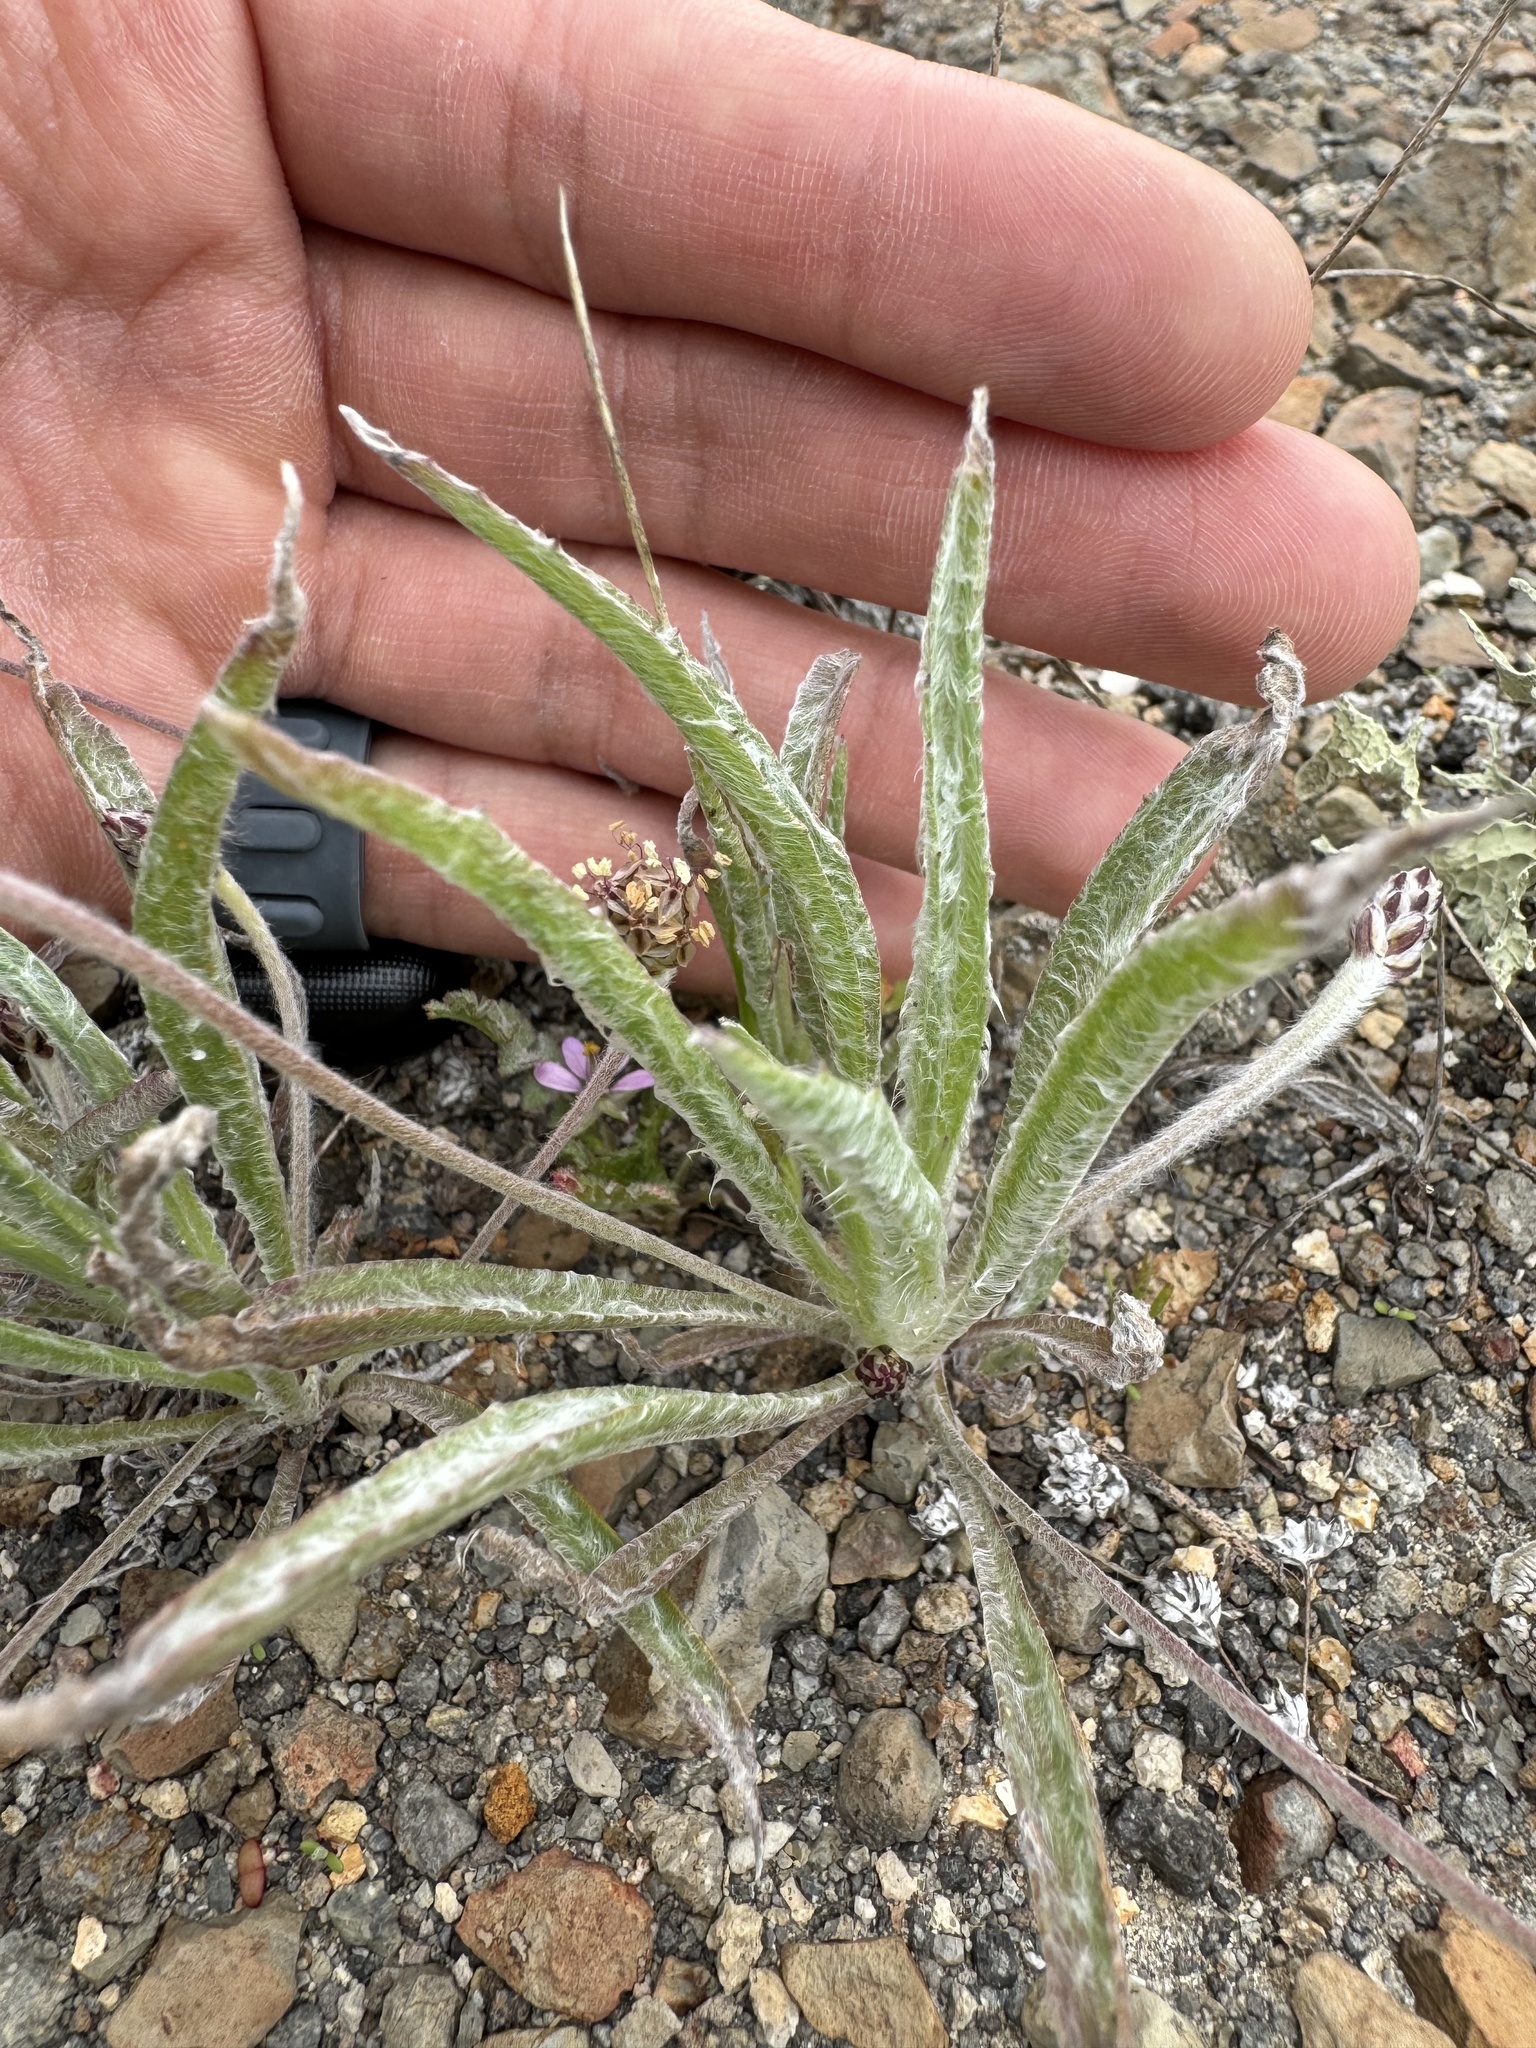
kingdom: Plantae
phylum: Tracheophyta
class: Magnoliopsida
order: Lamiales
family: Plantaginaceae
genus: Plantago
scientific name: Plantago ovata
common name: Blond plantain
